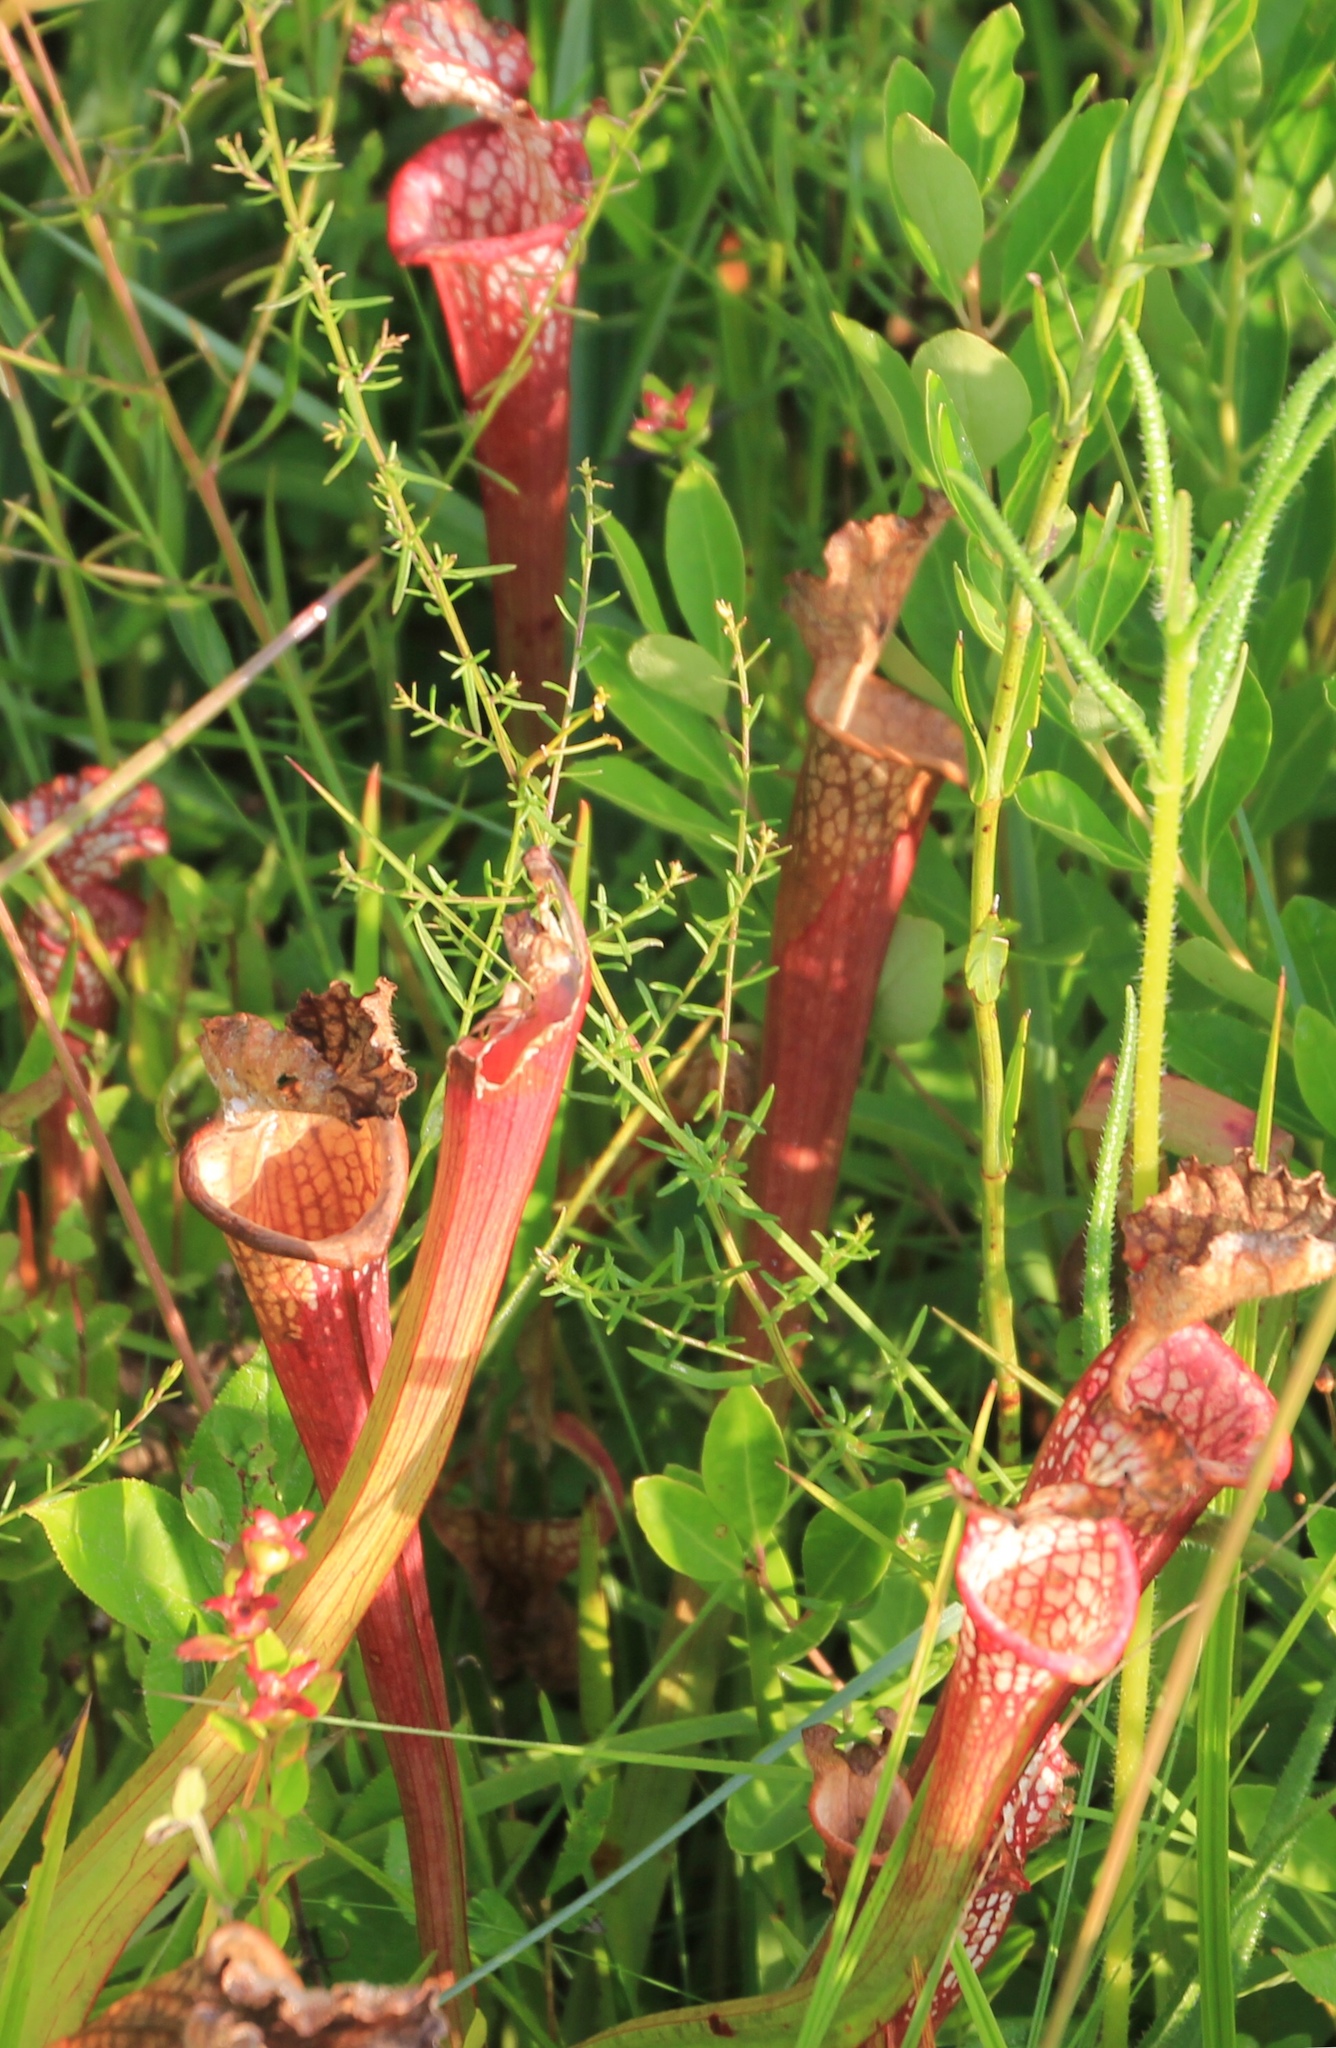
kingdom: Plantae
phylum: Tracheophyta
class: Magnoliopsida
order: Ericales
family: Sarraceniaceae
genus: Sarracenia
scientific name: Sarracenia leucophylla
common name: Purple trumpetleaf
